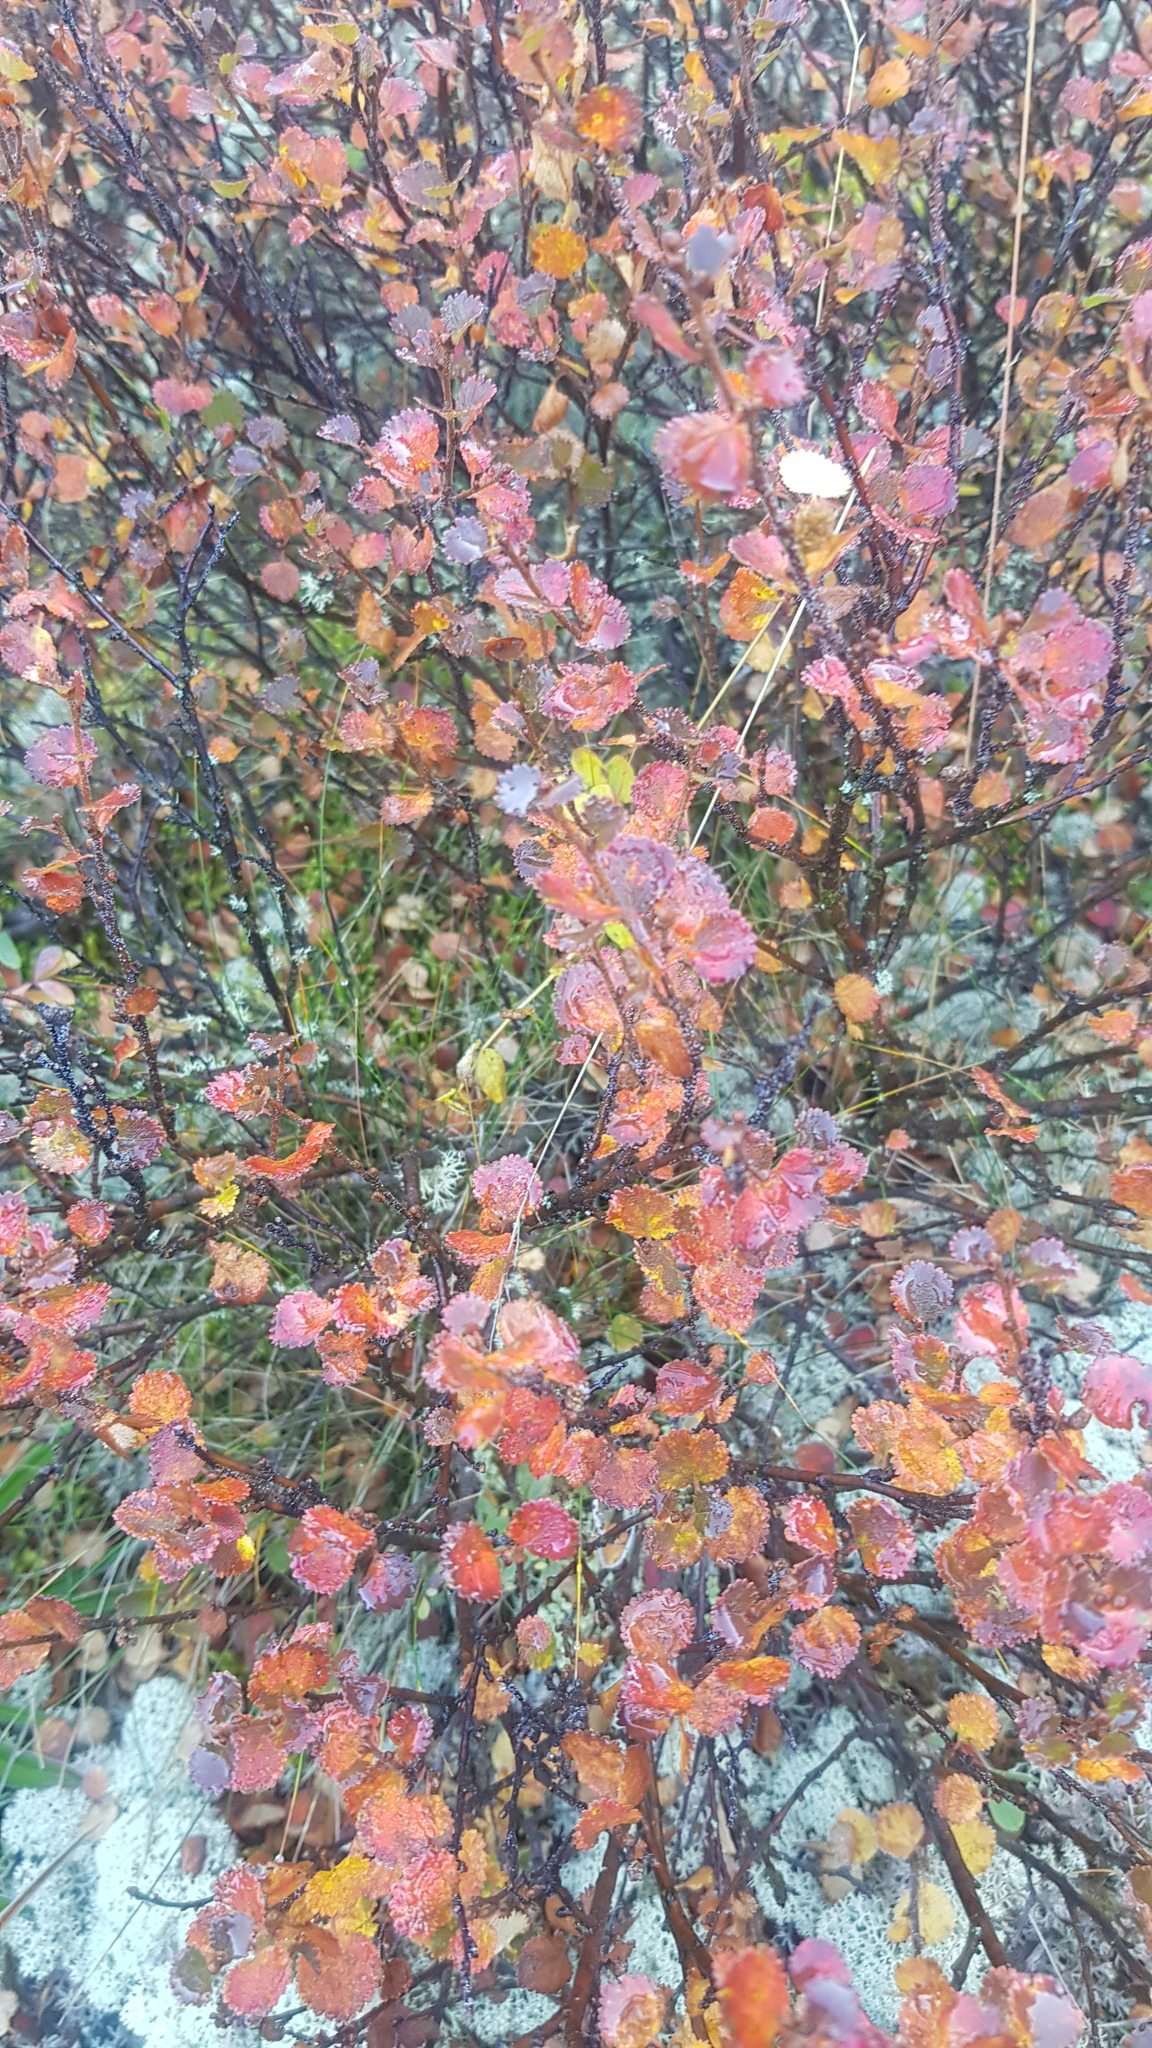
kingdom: Plantae
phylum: Tracheophyta
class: Magnoliopsida
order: Fagales
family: Betulaceae
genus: Betula
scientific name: Betula glandulosa
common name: Dwarf birch
